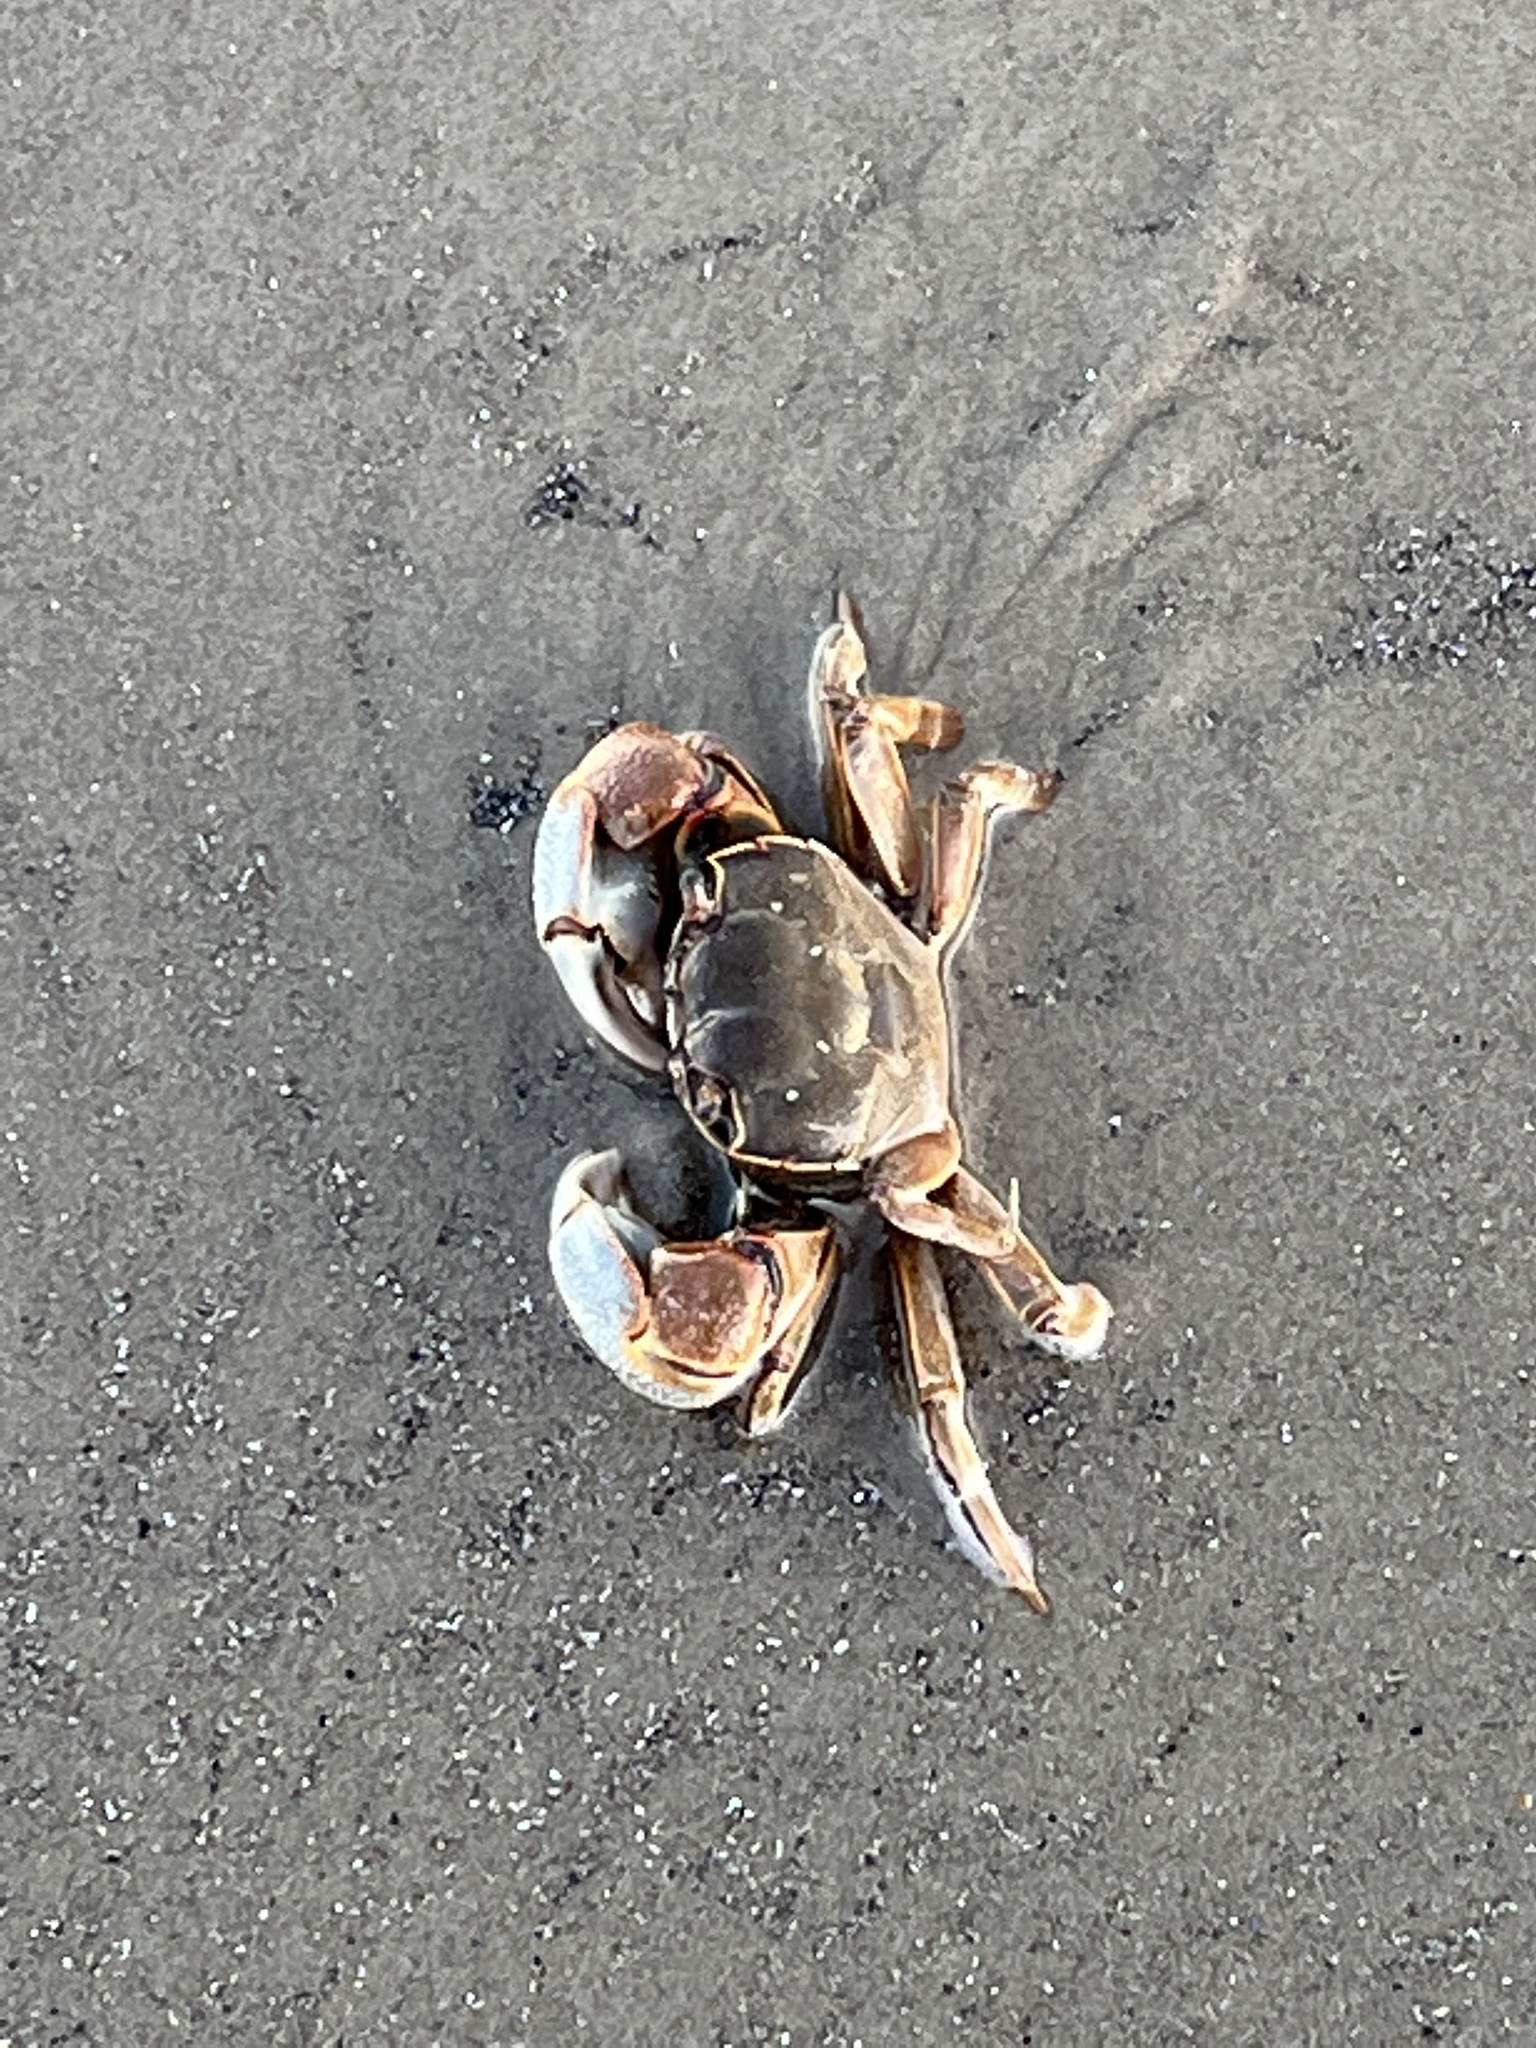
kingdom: Animalia
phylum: Arthropoda
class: Malacostraca
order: Decapoda
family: Varunidae
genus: Neohelice
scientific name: Neohelice granulata
